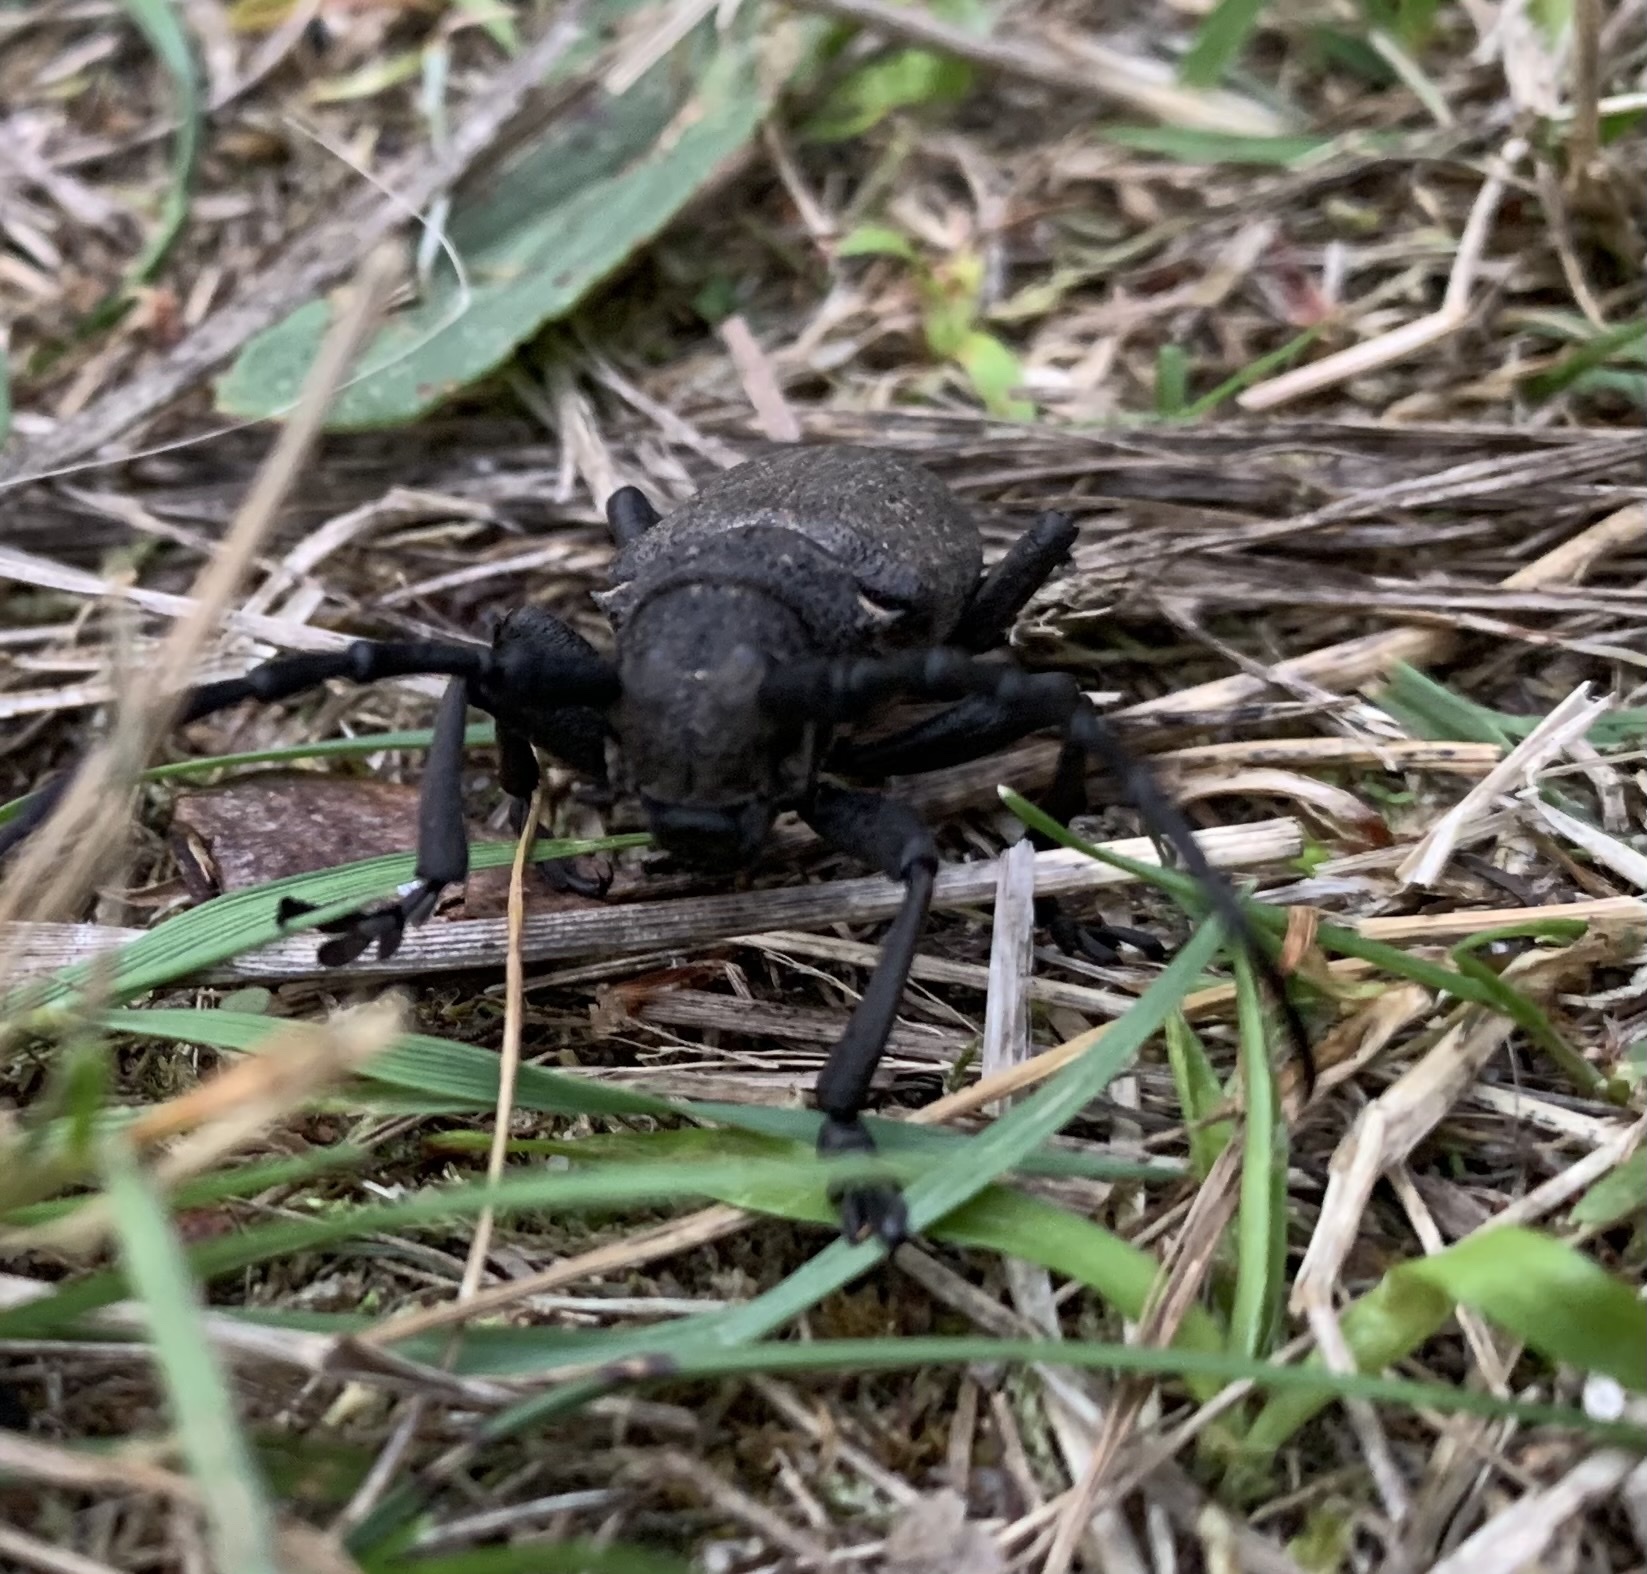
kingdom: Animalia
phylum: Arthropoda
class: Insecta
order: Coleoptera
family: Cerambycidae
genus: Lamia
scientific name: Lamia textor
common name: Weaver beetle
